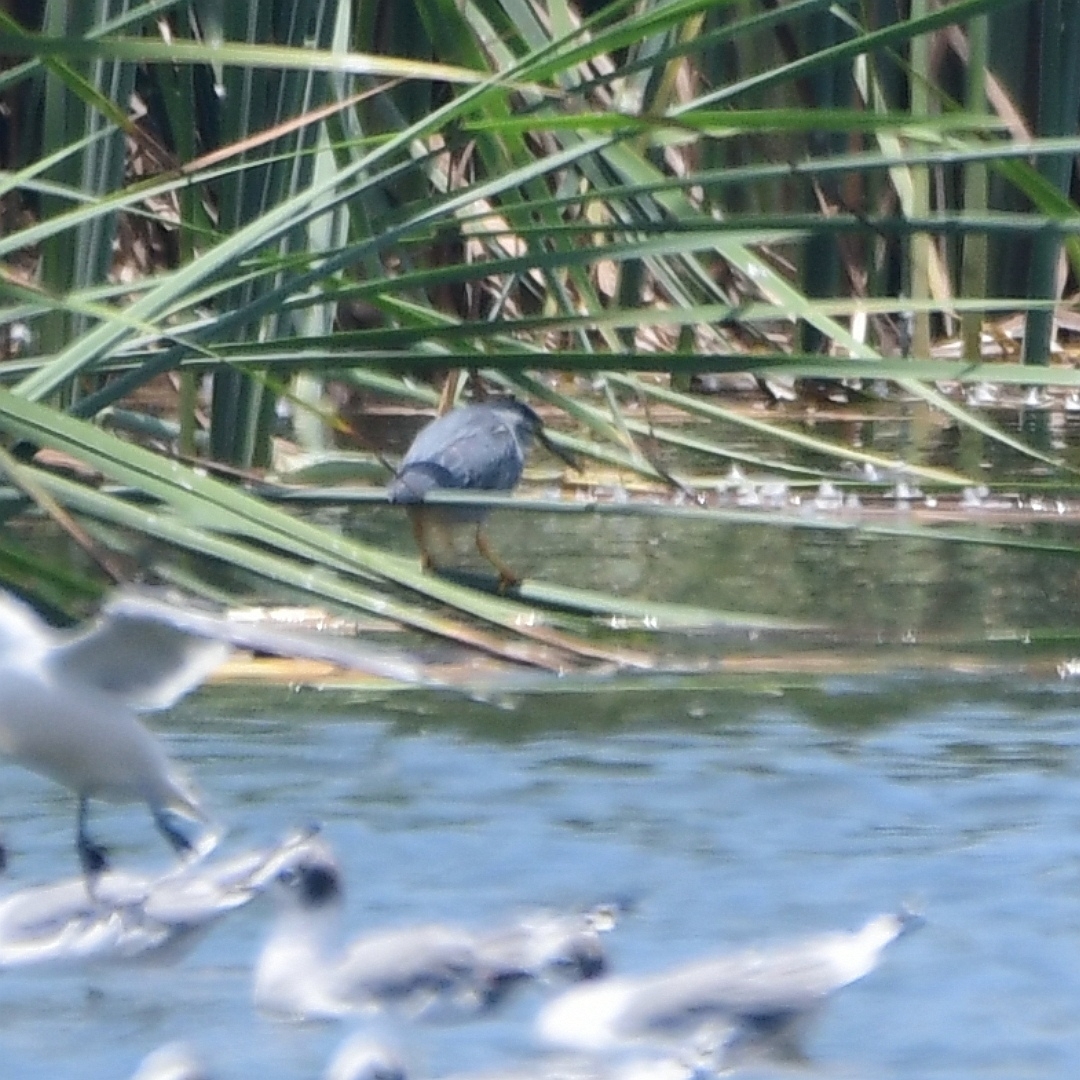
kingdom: Animalia
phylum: Chordata
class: Aves
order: Pelecaniformes
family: Ardeidae
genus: Butorides
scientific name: Butorides striata
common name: Striated heron
